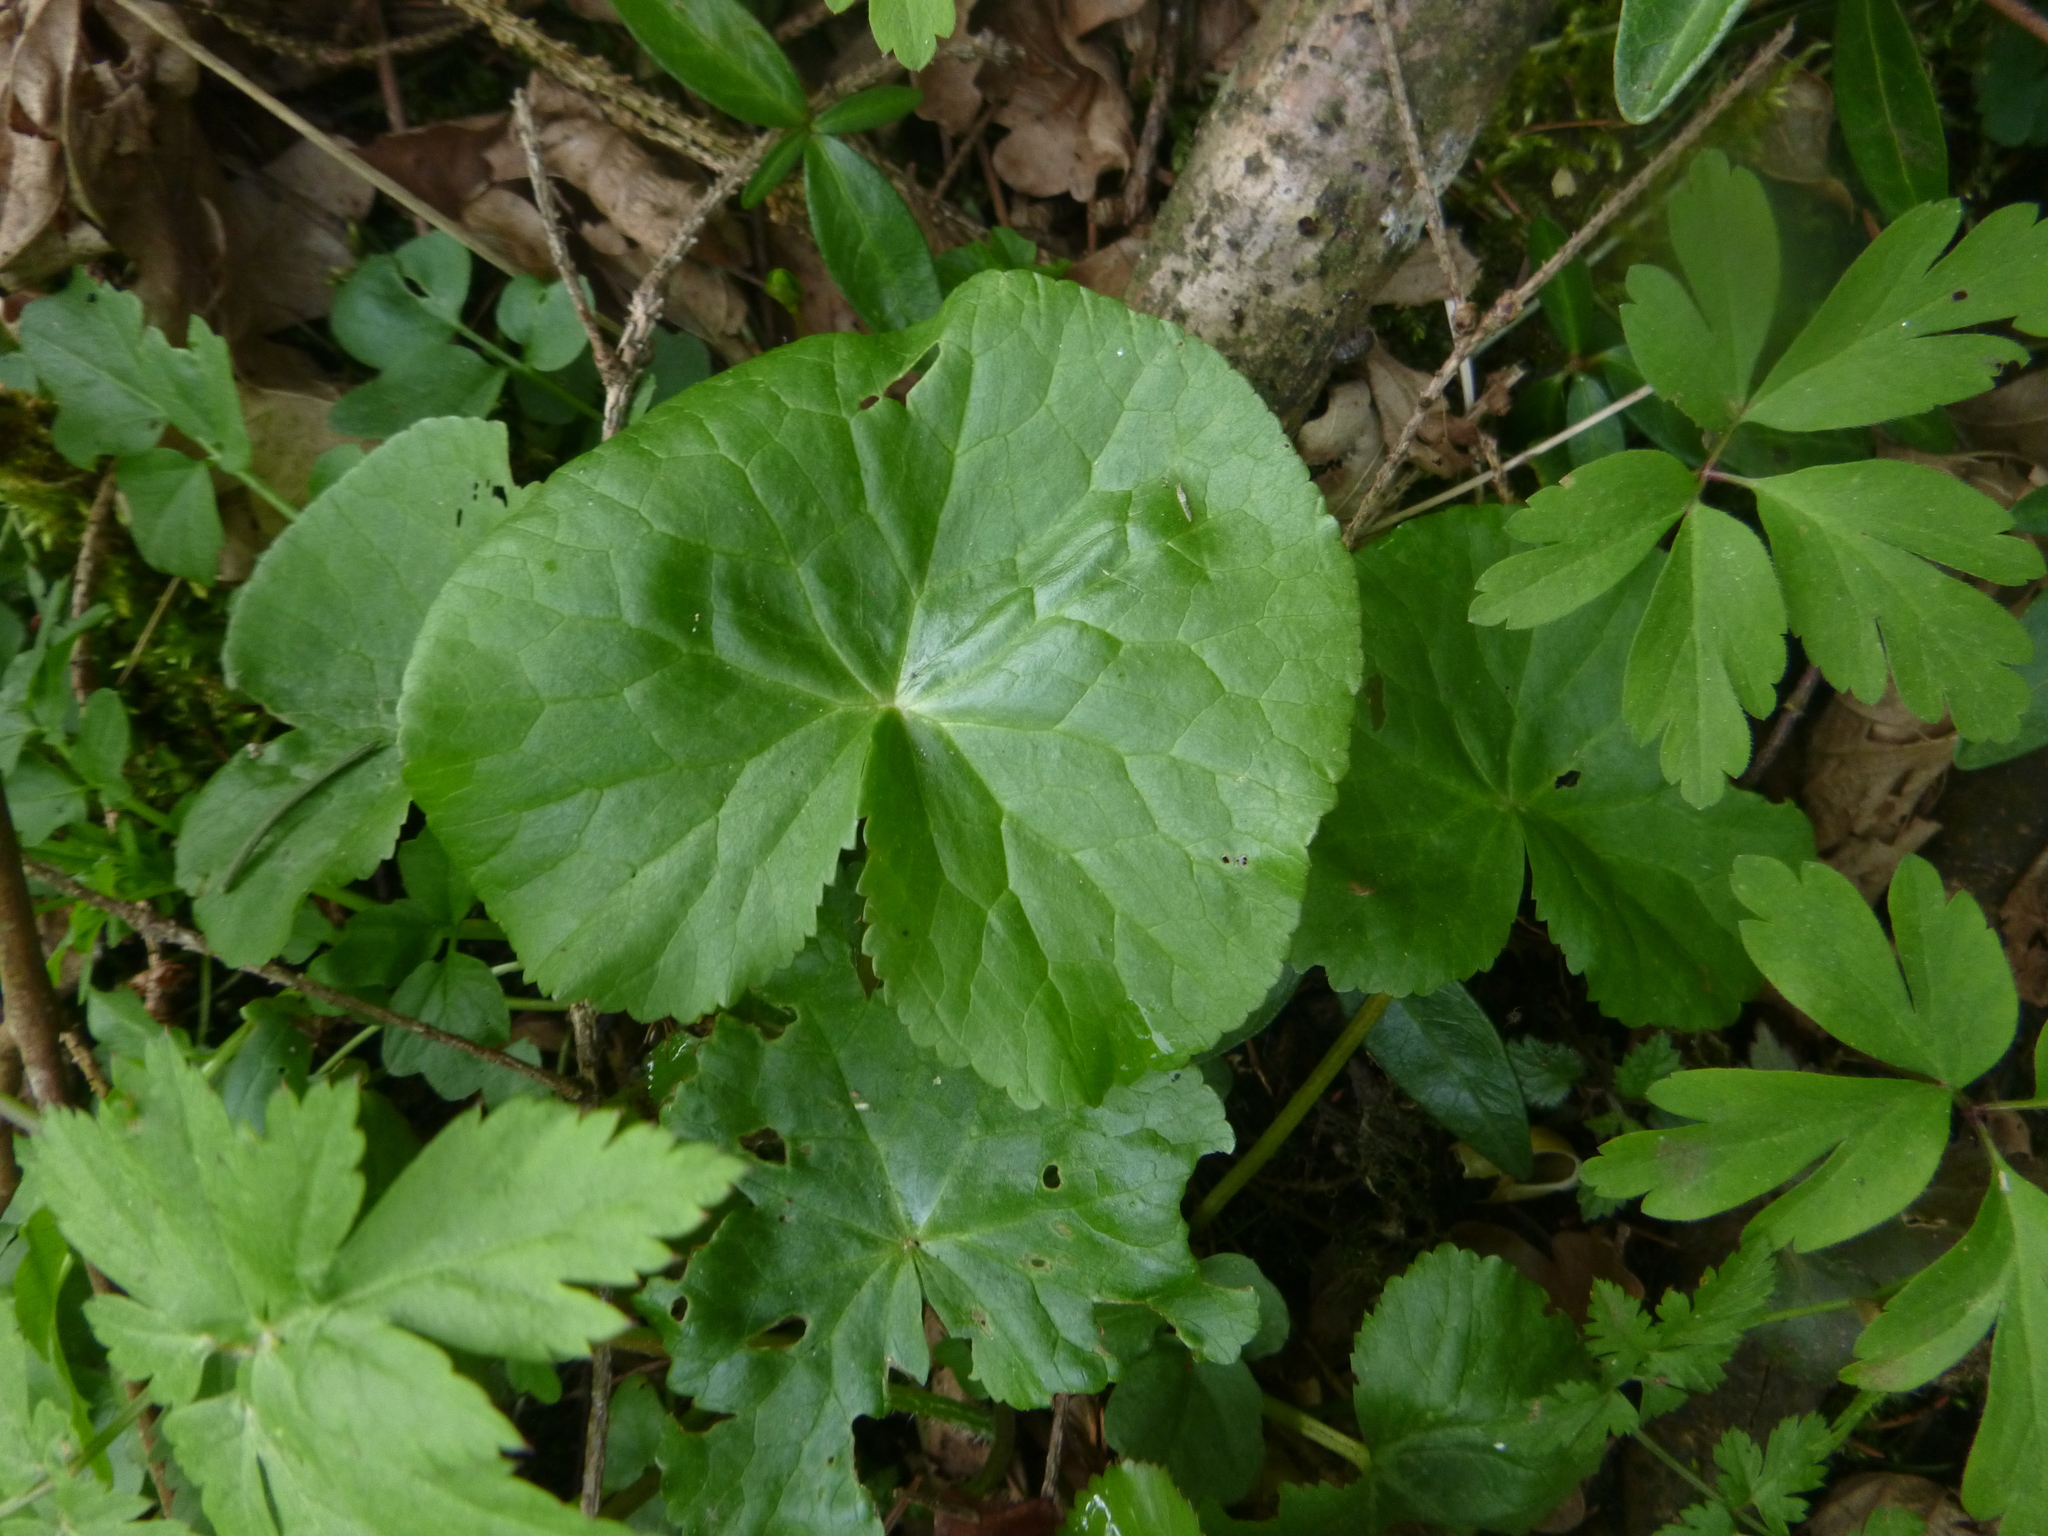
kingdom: Plantae
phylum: Tracheophyta
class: Magnoliopsida
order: Ranunculales
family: Ranunculaceae
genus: Caltha
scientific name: Caltha palustris
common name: Marsh marigold
